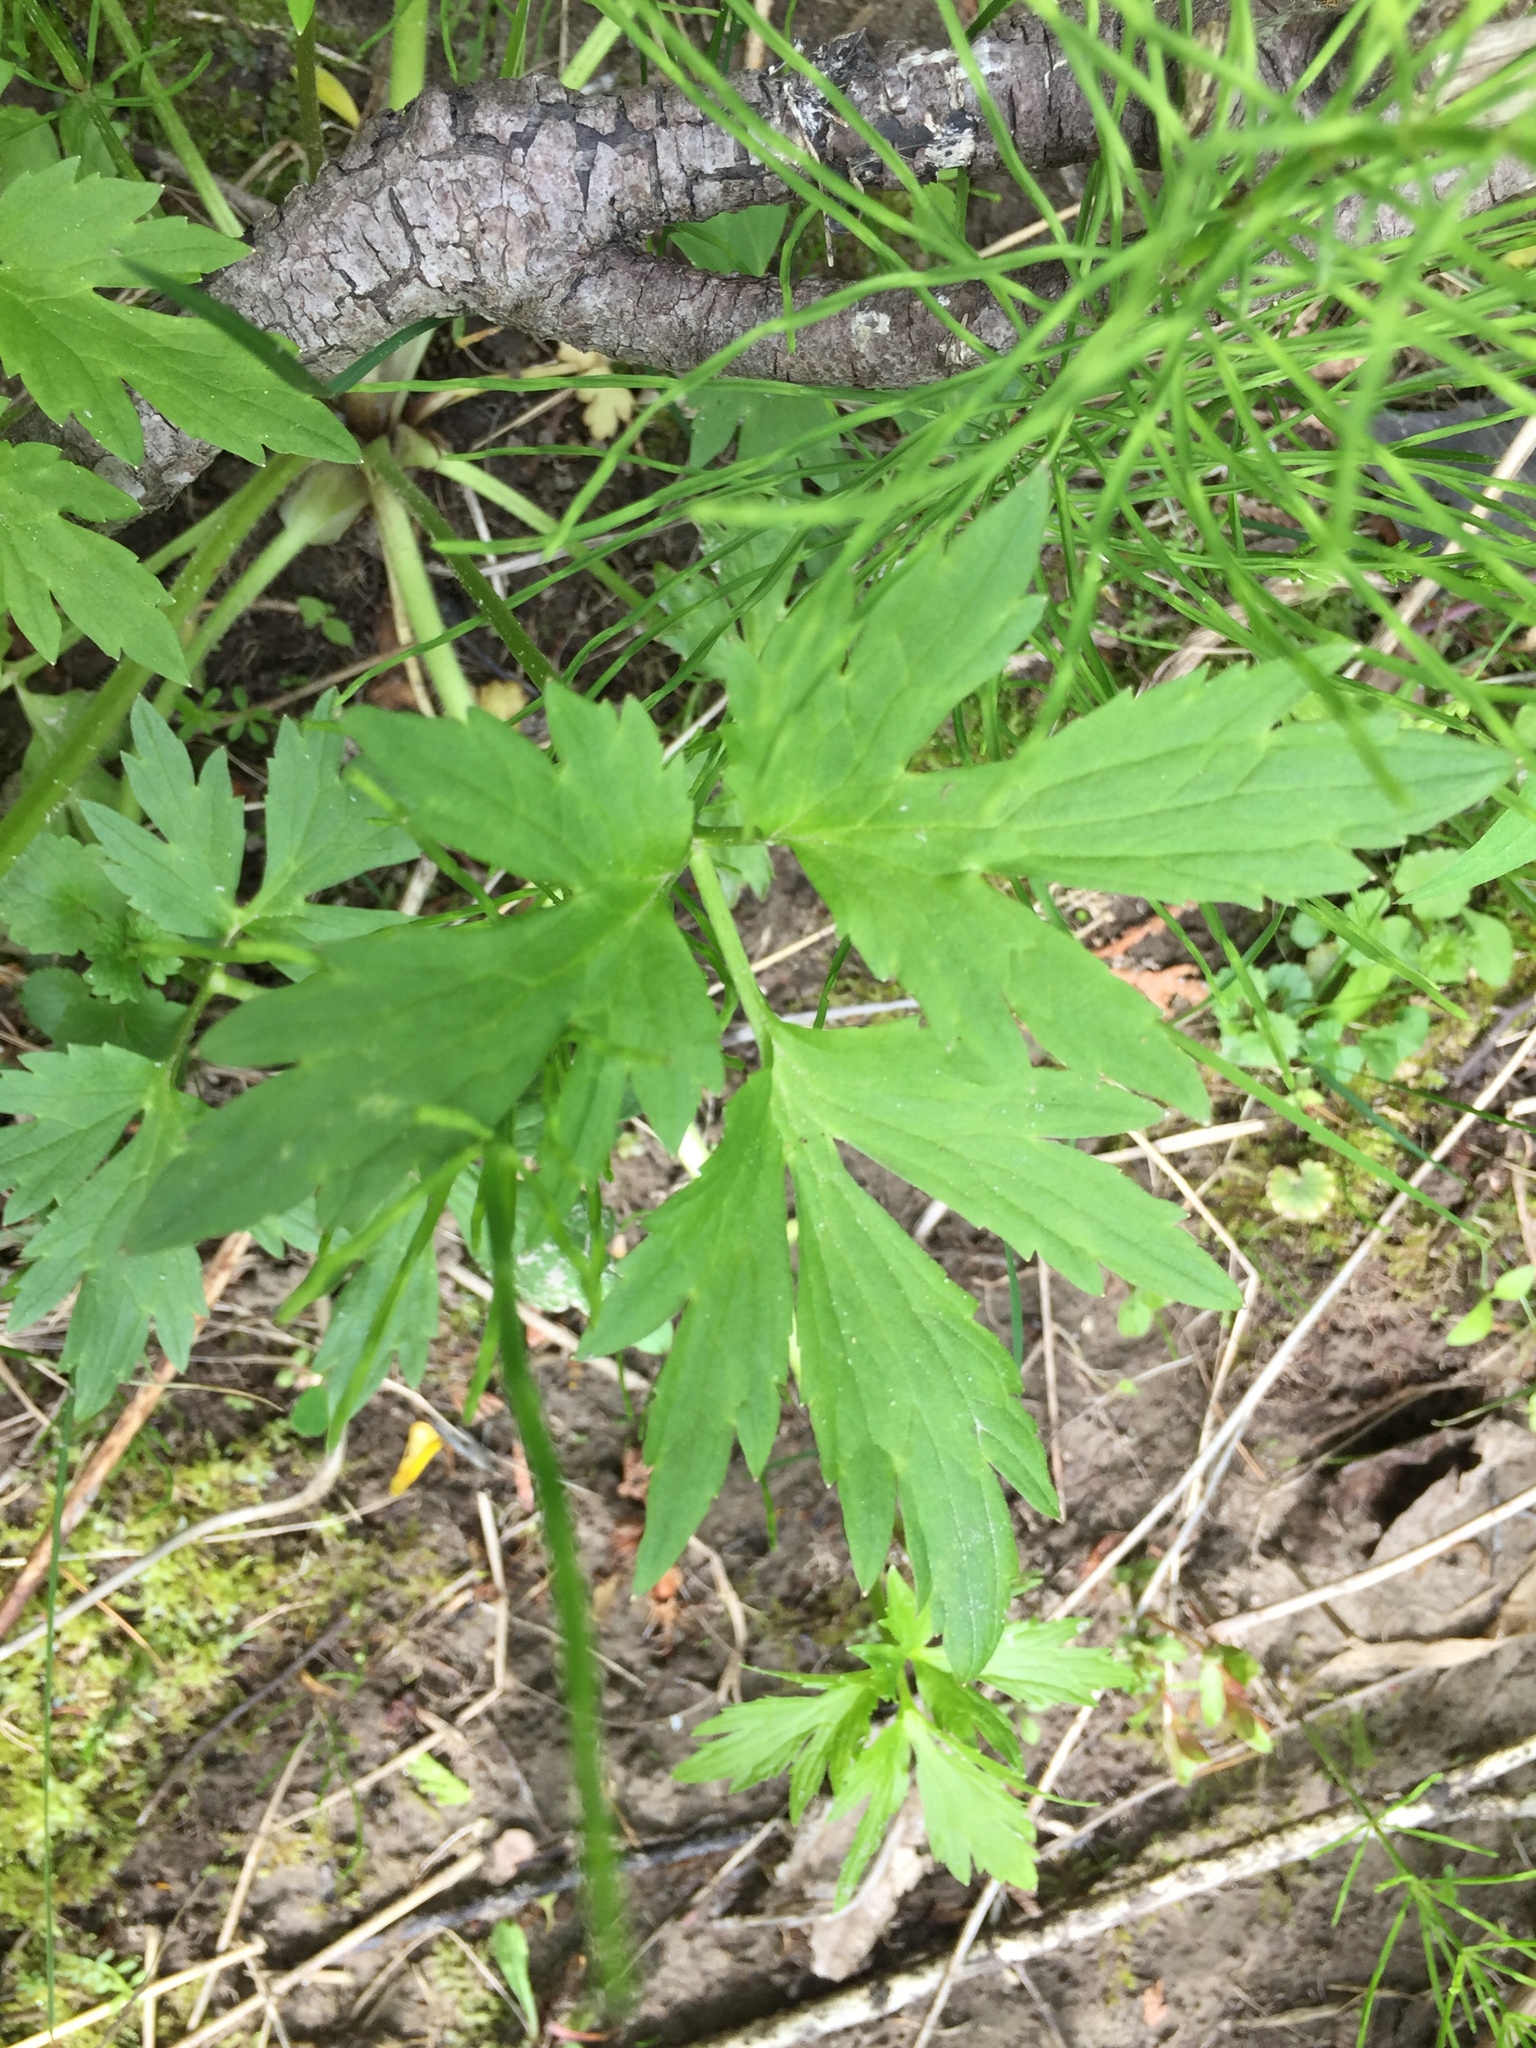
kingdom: Plantae
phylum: Tracheophyta
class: Magnoliopsida
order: Ranunculales
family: Ranunculaceae
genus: Ranunculus
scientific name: Ranunculus hispidus
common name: Bristly buttercup
